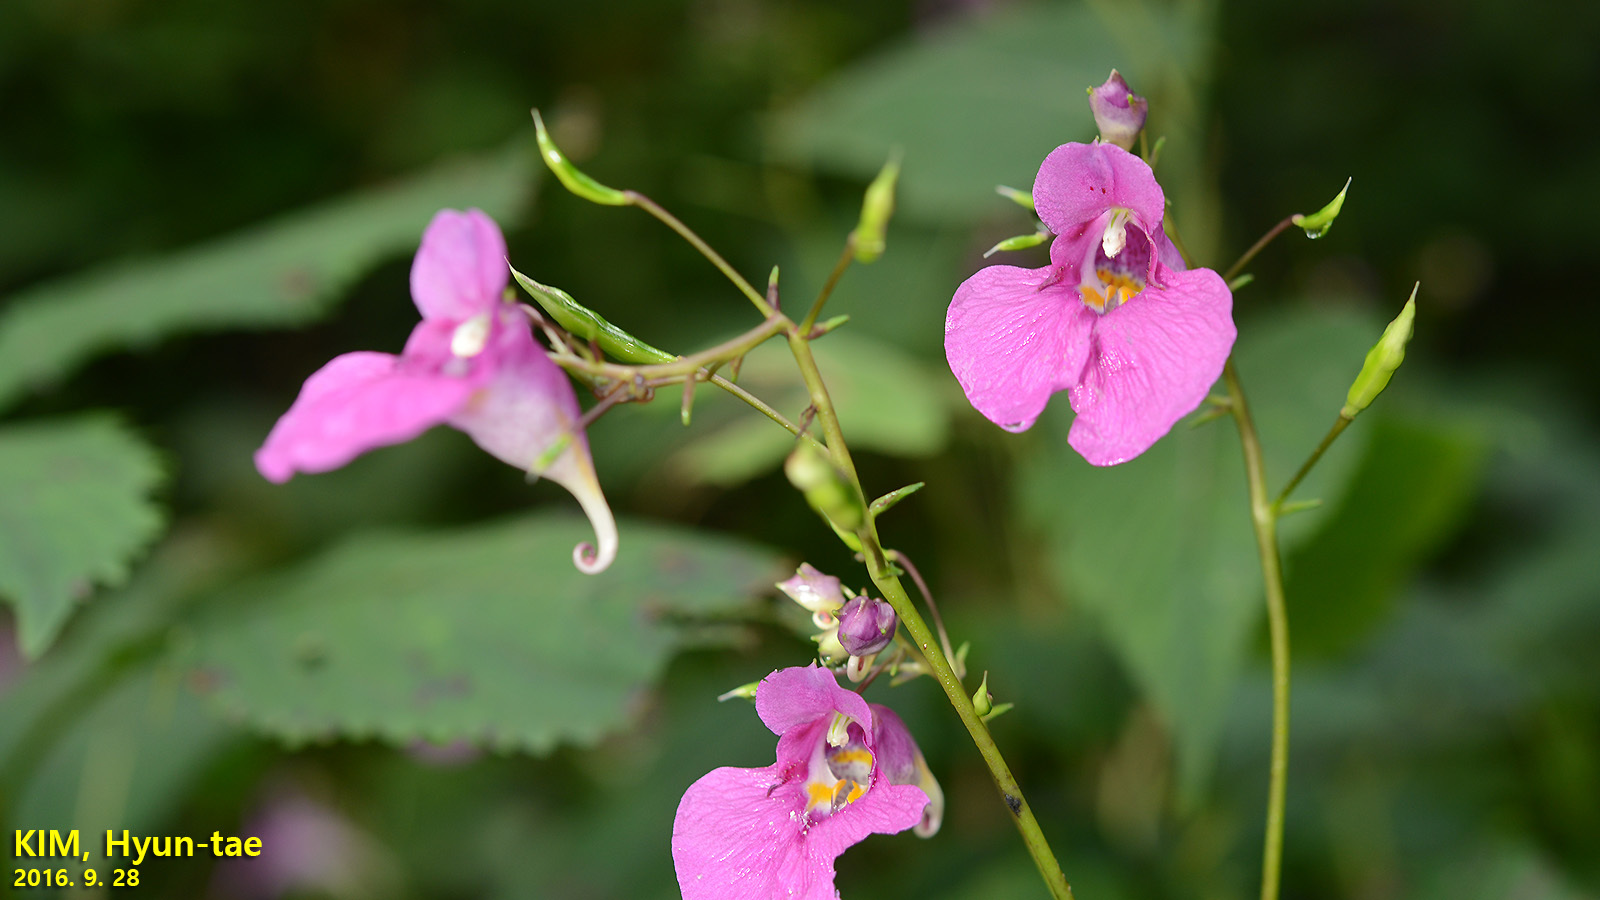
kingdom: Plantae
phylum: Tracheophyta
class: Magnoliopsida
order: Ericales
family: Balsaminaceae
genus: Impatiens
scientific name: Impatiens textorii
